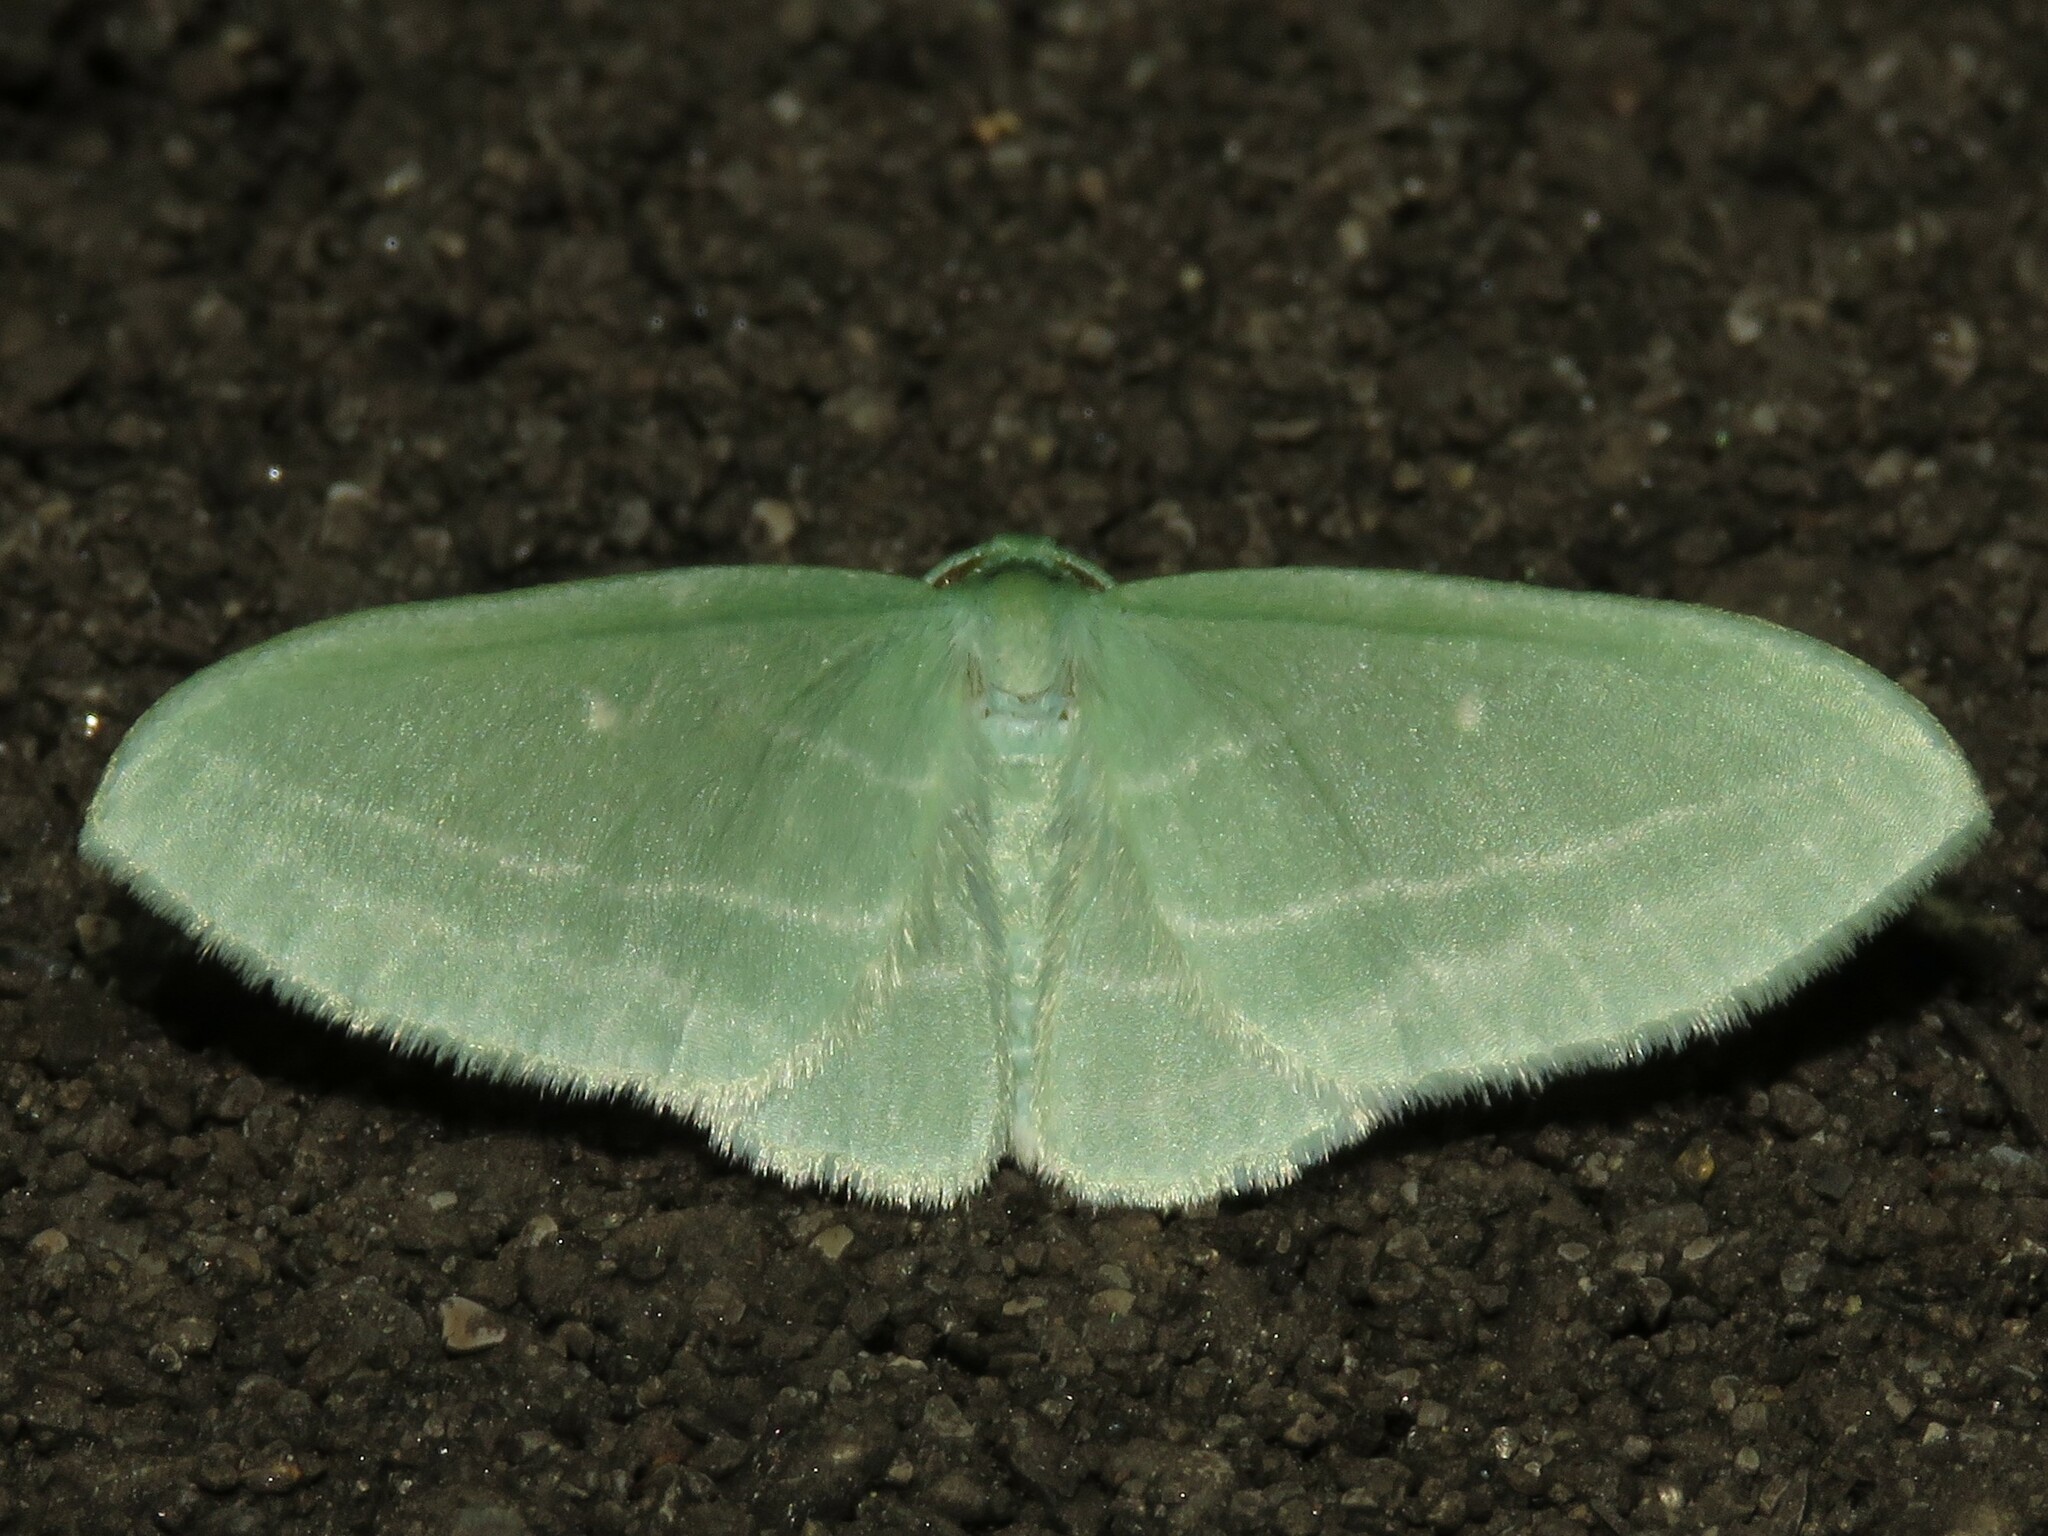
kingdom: Animalia
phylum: Arthropoda
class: Insecta
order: Lepidoptera
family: Geometridae
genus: Dyspteris
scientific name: Dyspteris abortivaria
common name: Bad-wing
